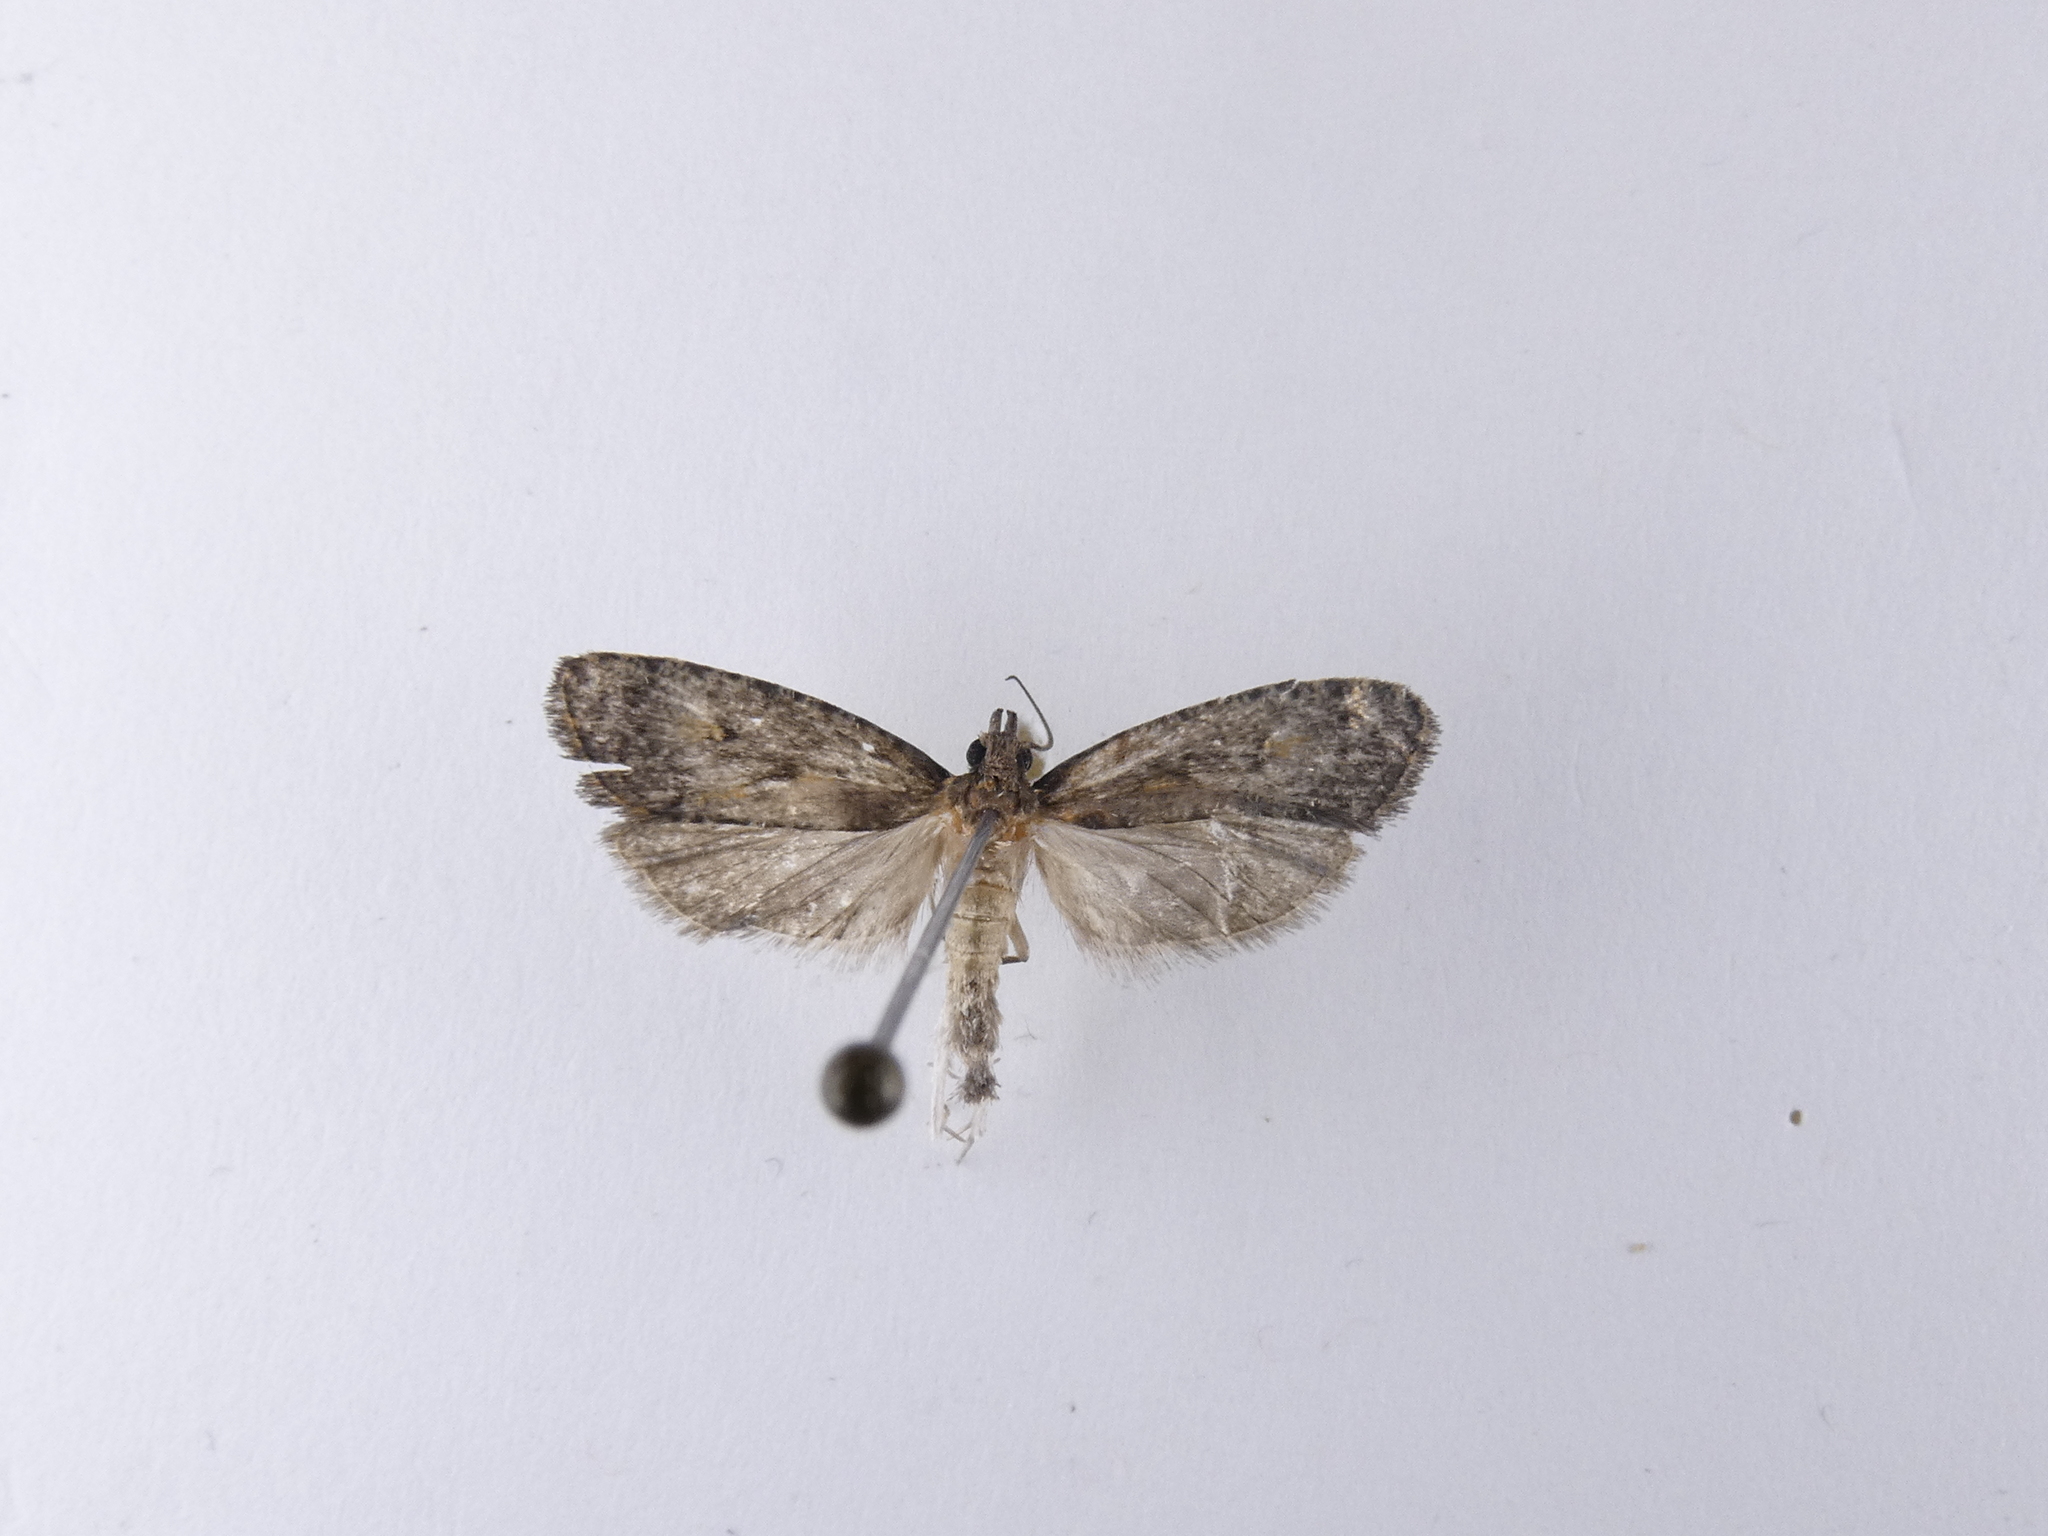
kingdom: Animalia
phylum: Arthropoda
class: Insecta
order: Lepidoptera
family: Tortricidae
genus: Cryptaspasma
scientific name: Cryptaspasma querula
